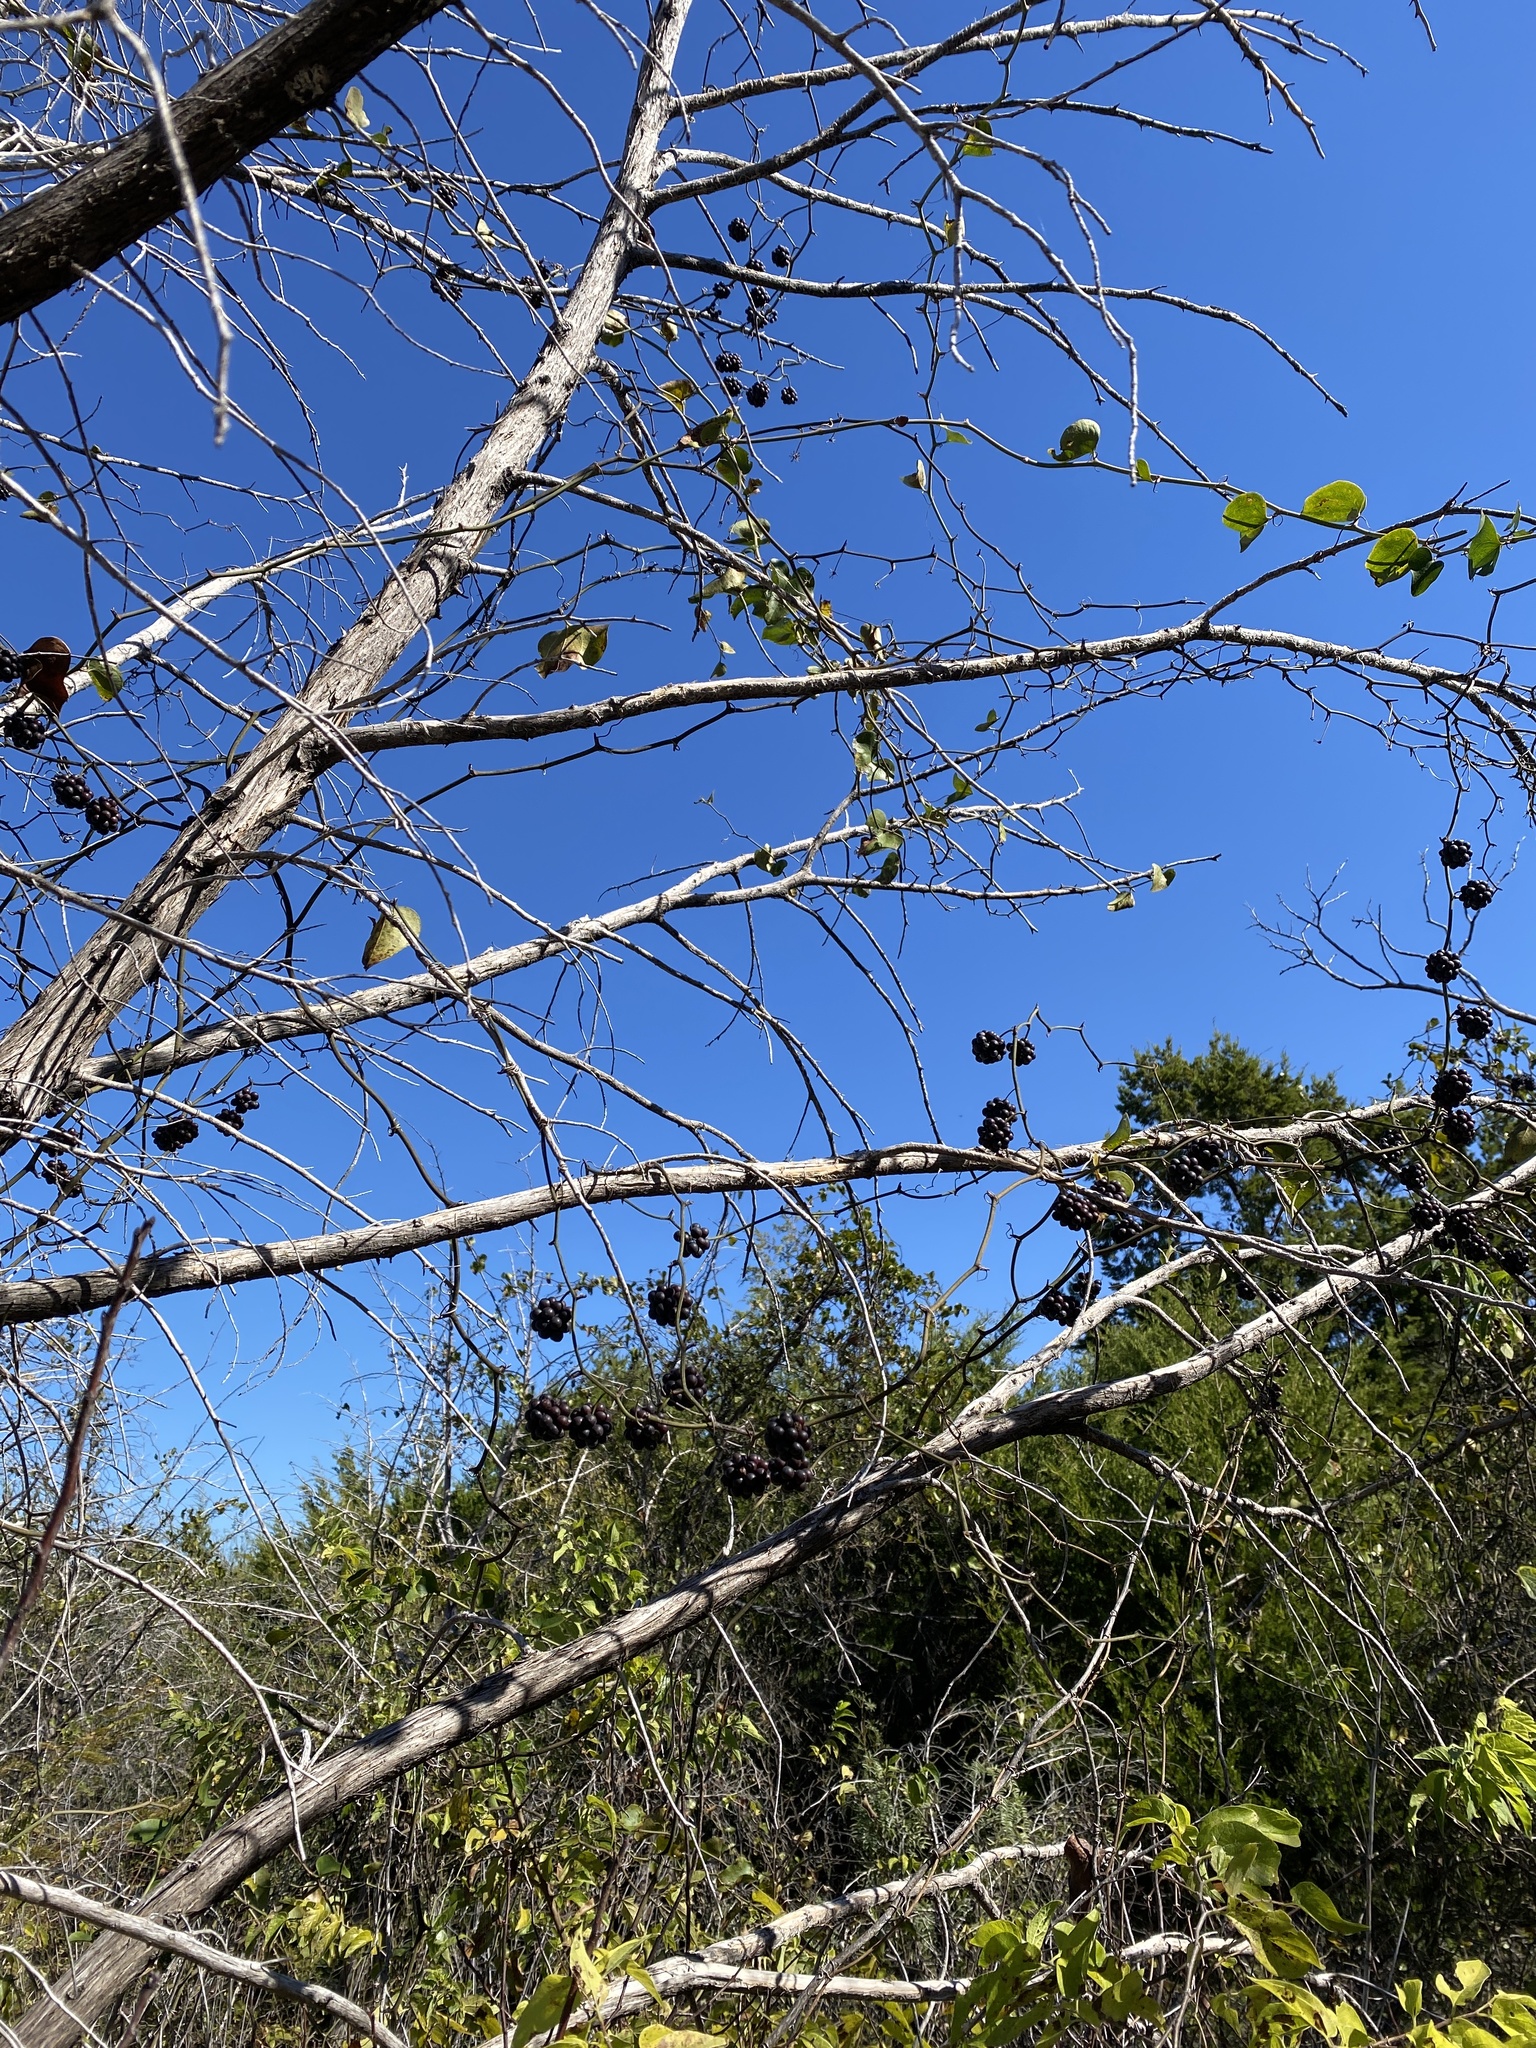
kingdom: Plantae
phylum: Tracheophyta
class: Liliopsida
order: Liliales
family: Smilacaceae
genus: Smilax
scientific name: Smilax bona-nox
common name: Catbrier
